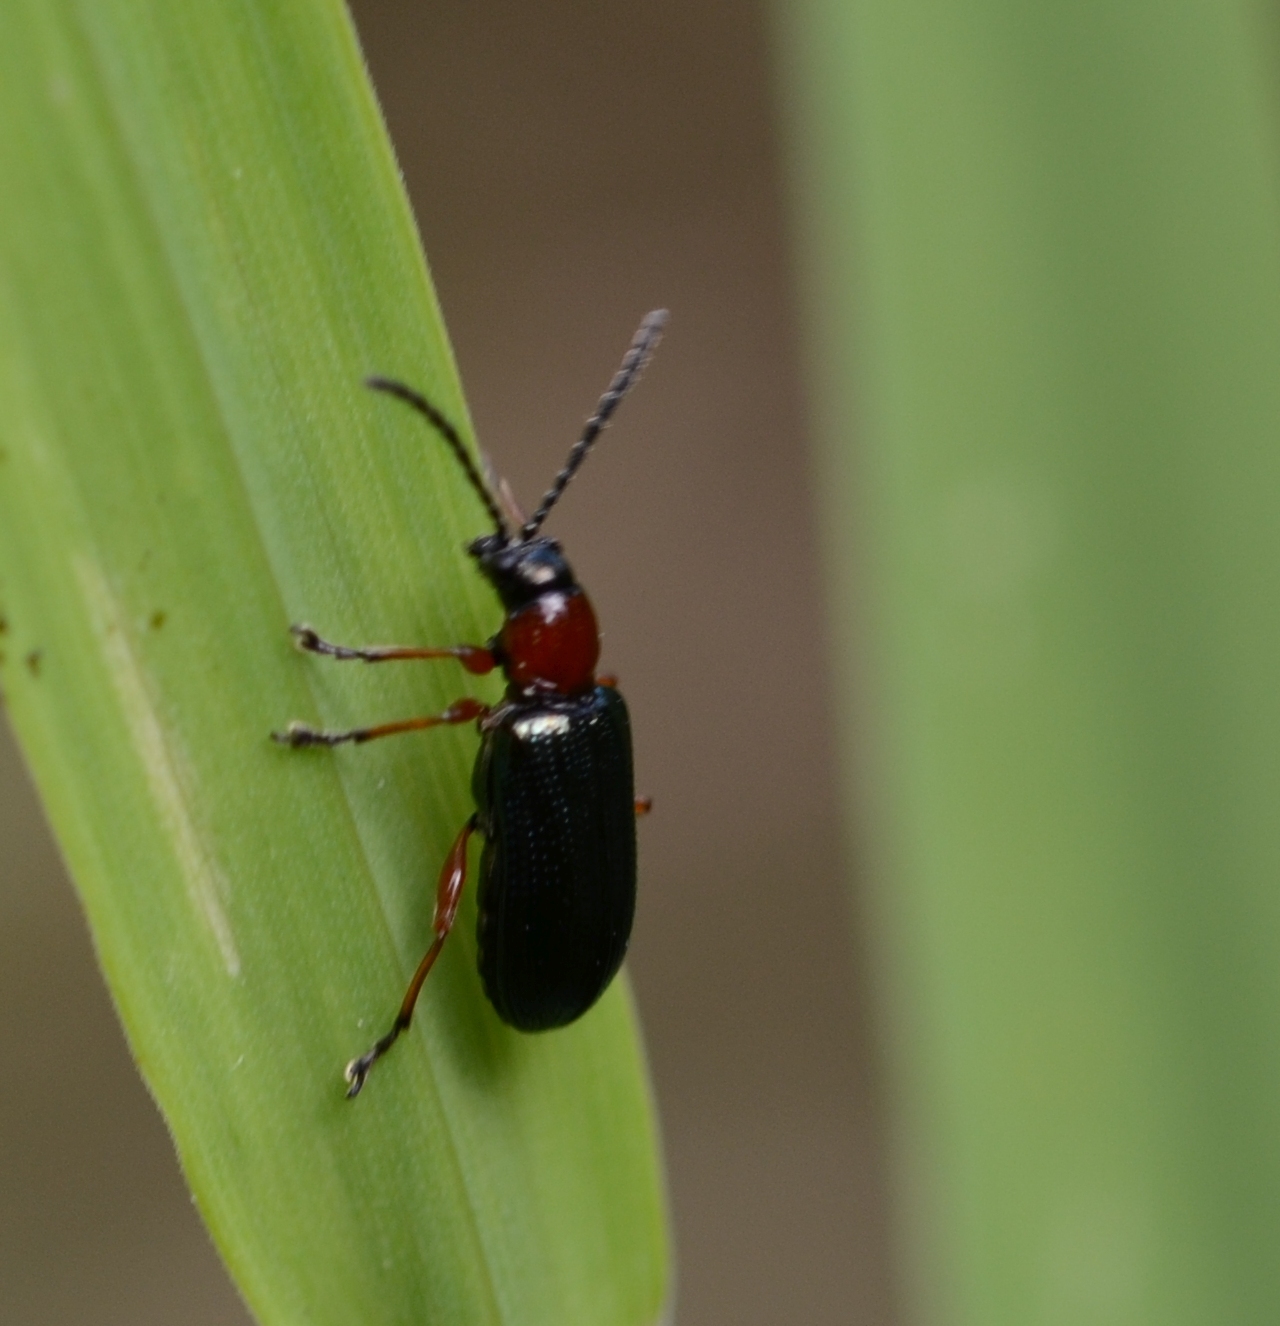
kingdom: Animalia
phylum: Arthropoda
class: Insecta
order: Coleoptera
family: Chrysomelidae
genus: Oulema
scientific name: Oulema
